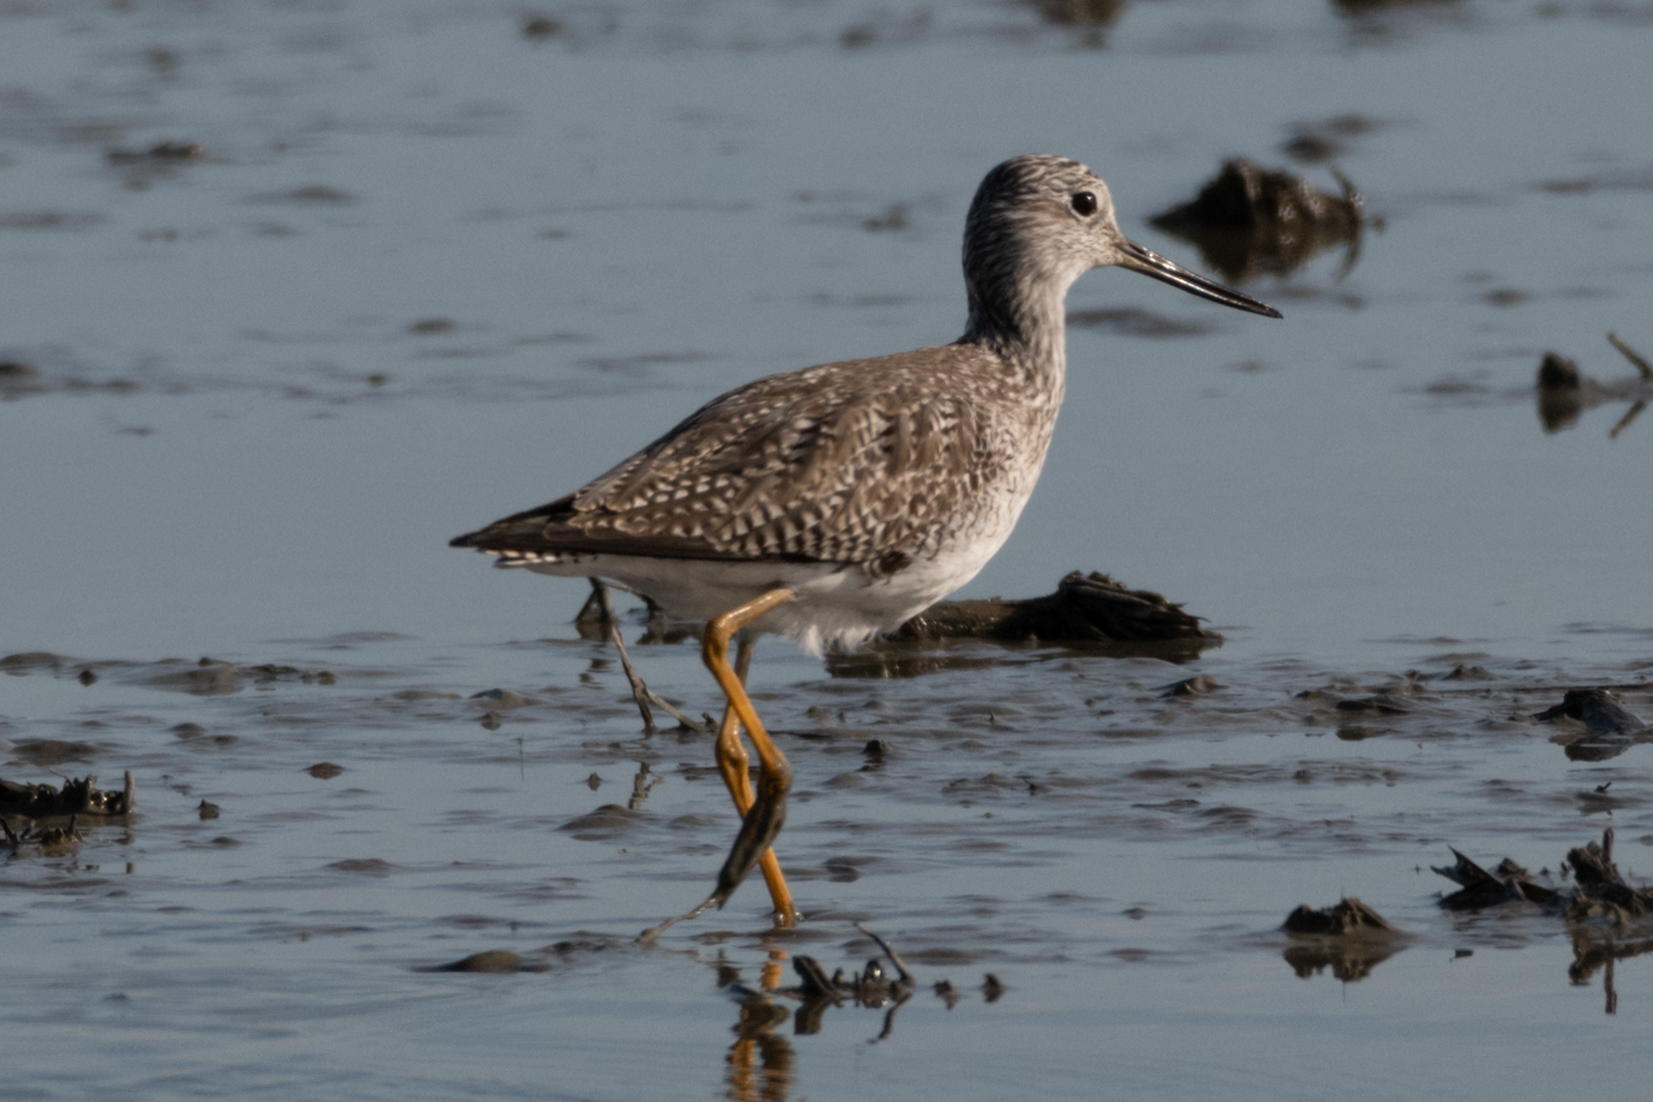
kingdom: Animalia
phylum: Chordata
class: Aves
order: Charadriiformes
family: Scolopacidae
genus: Tringa
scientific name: Tringa melanoleuca
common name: Greater yellowlegs
